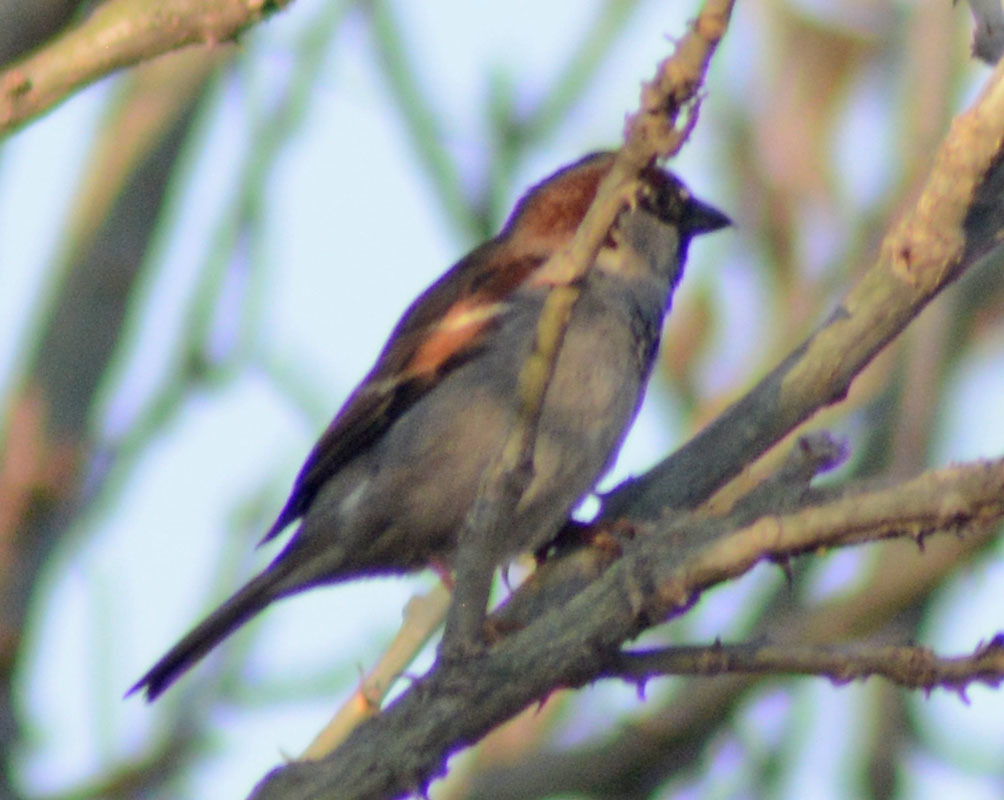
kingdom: Animalia
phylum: Chordata
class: Aves
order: Passeriformes
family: Passeridae
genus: Passer
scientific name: Passer domesticus
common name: House sparrow
